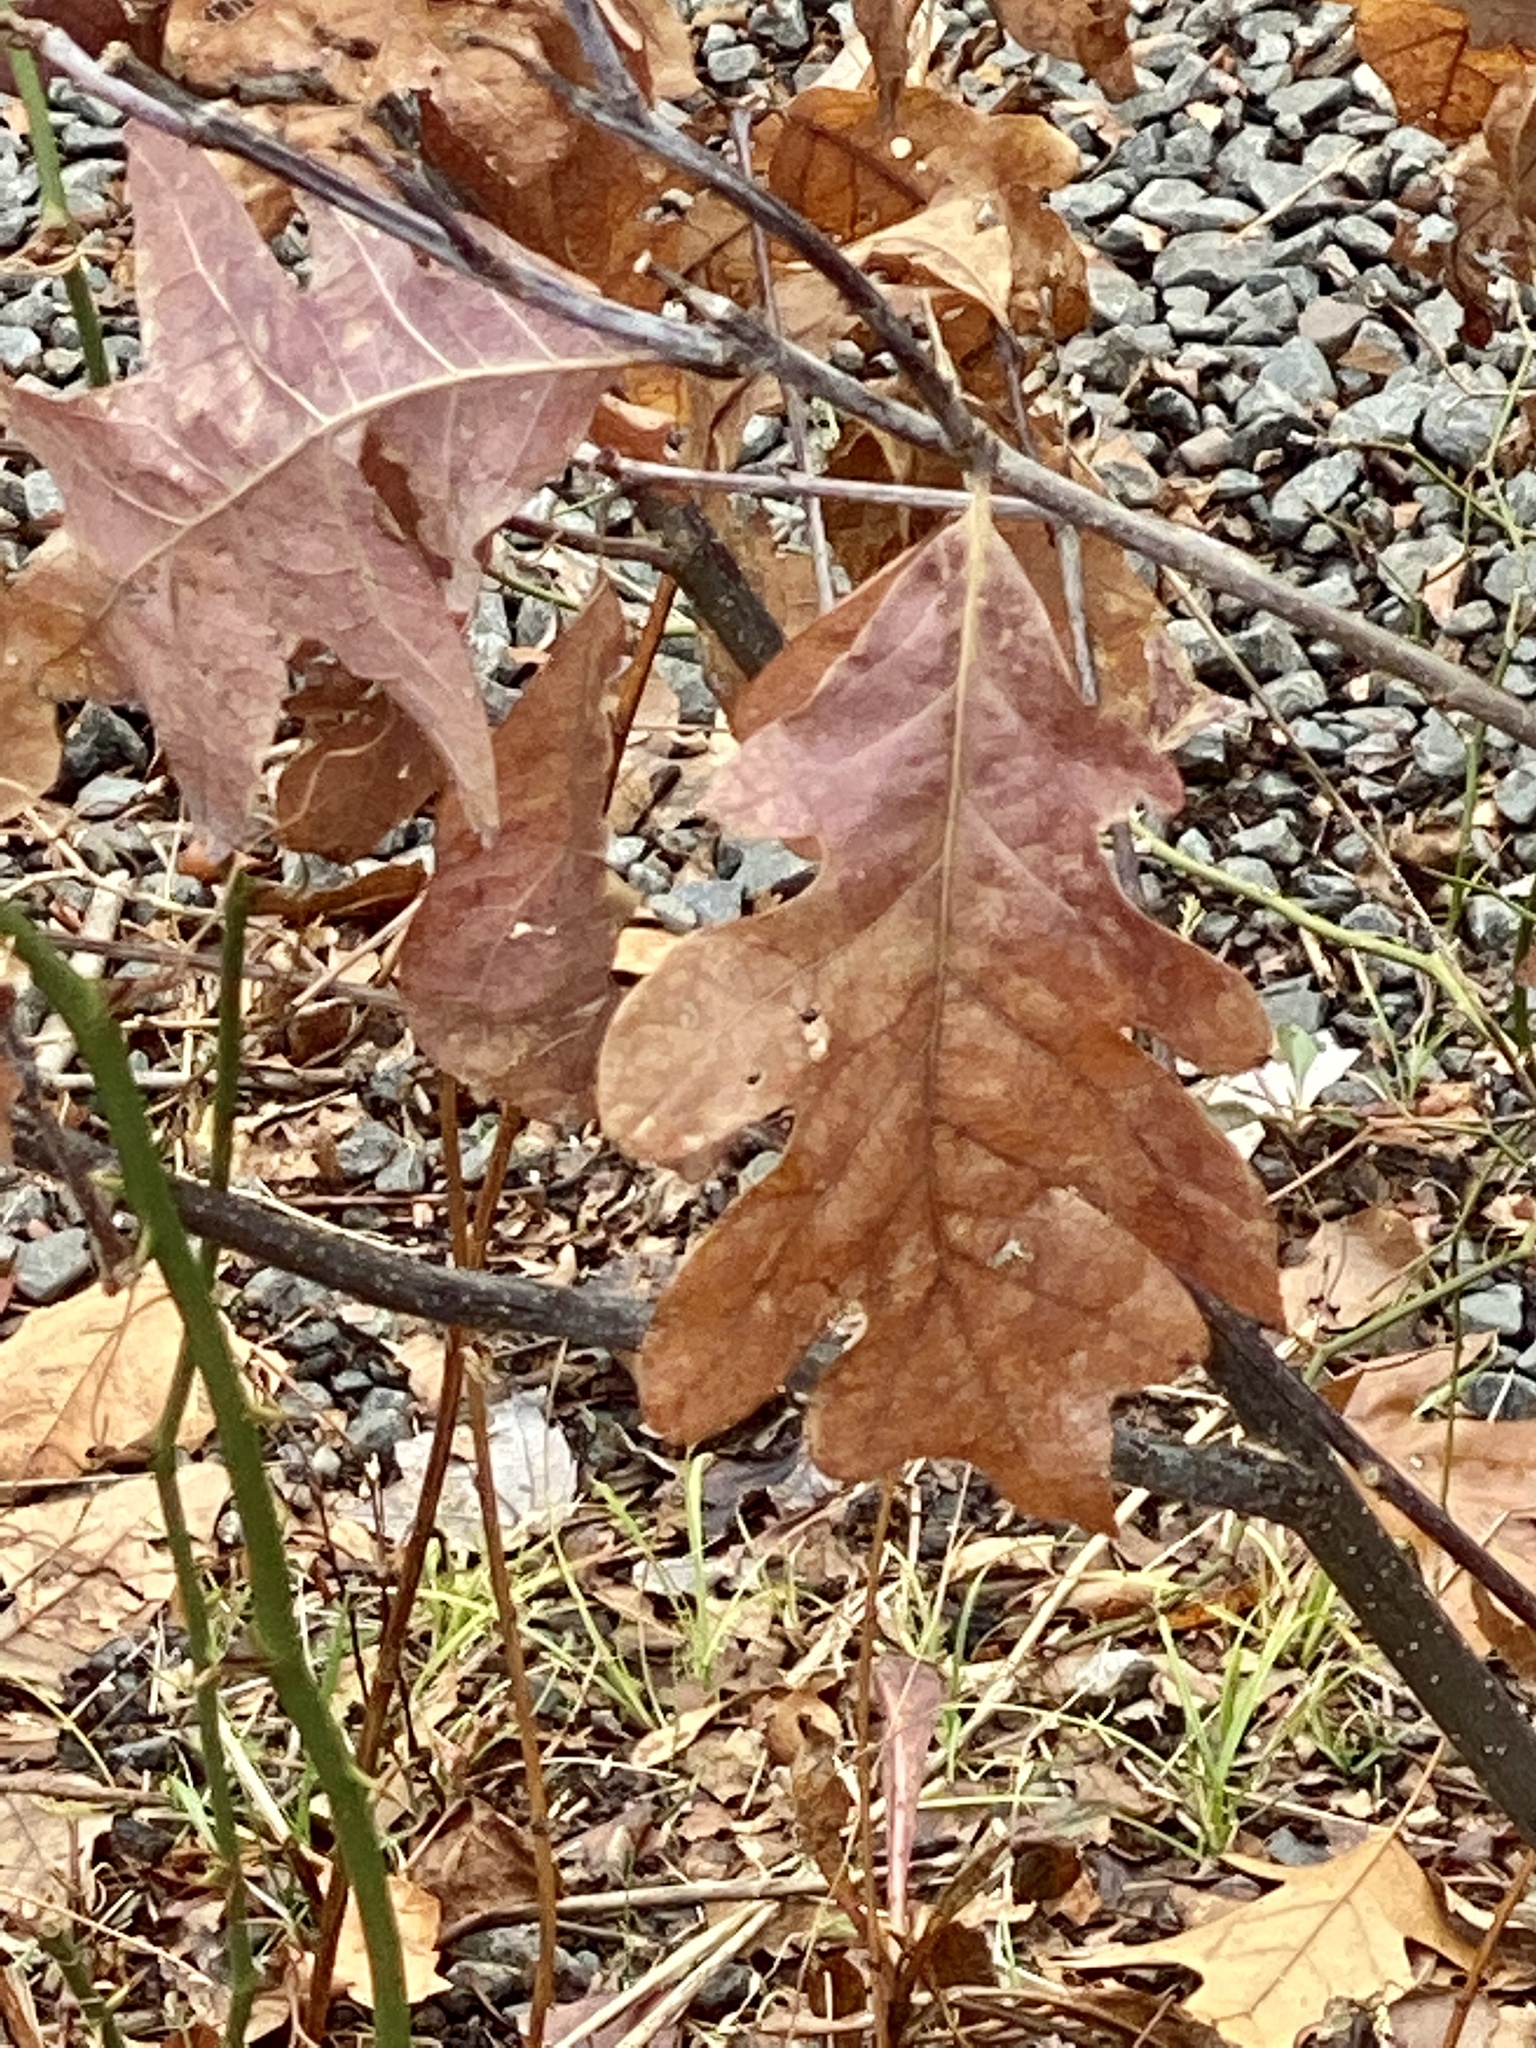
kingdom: Plantae
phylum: Tracheophyta
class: Magnoliopsida
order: Fagales
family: Fagaceae
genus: Quercus
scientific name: Quercus alba
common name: White oak
